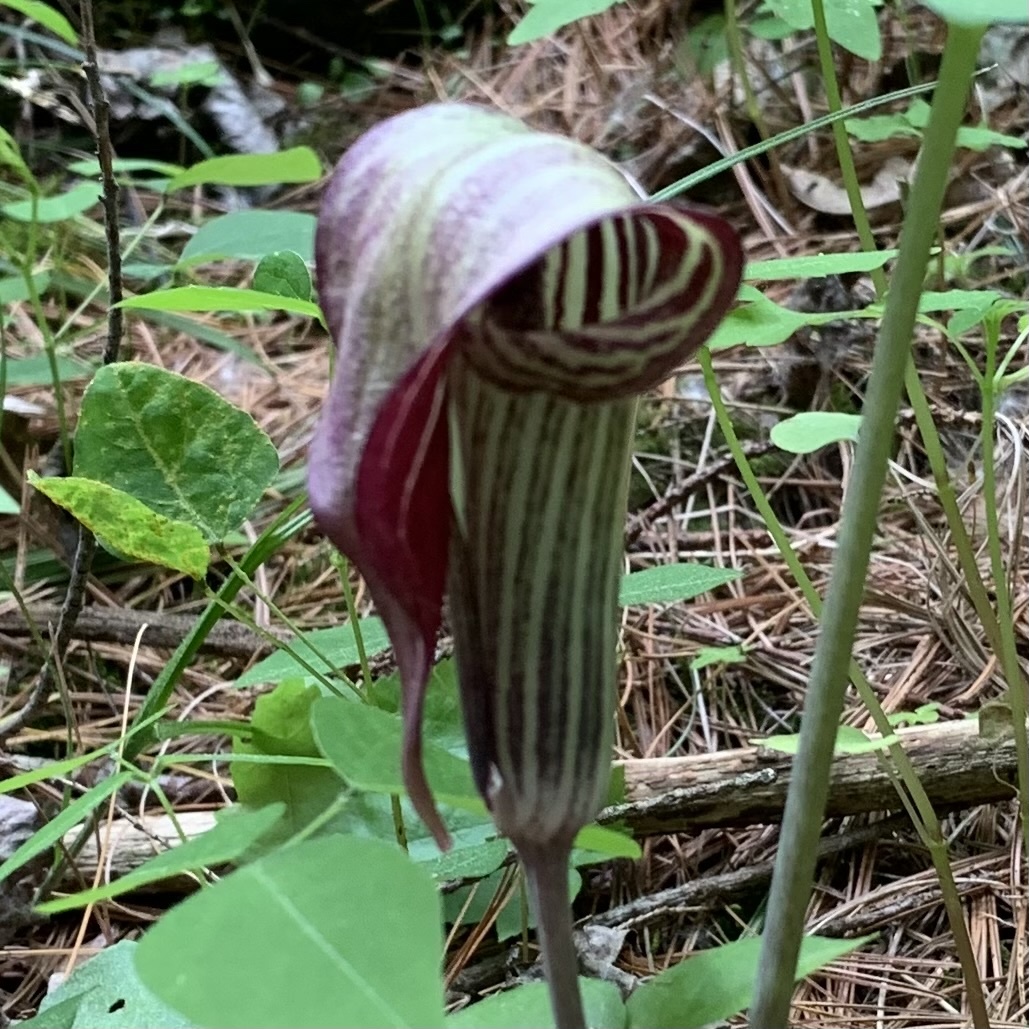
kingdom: Plantae
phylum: Tracheophyta
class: Liliopsida
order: Alismatales
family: Araceae
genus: Arisaema
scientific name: Arisaema triphyllum
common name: Jack-in-the-pulpit
